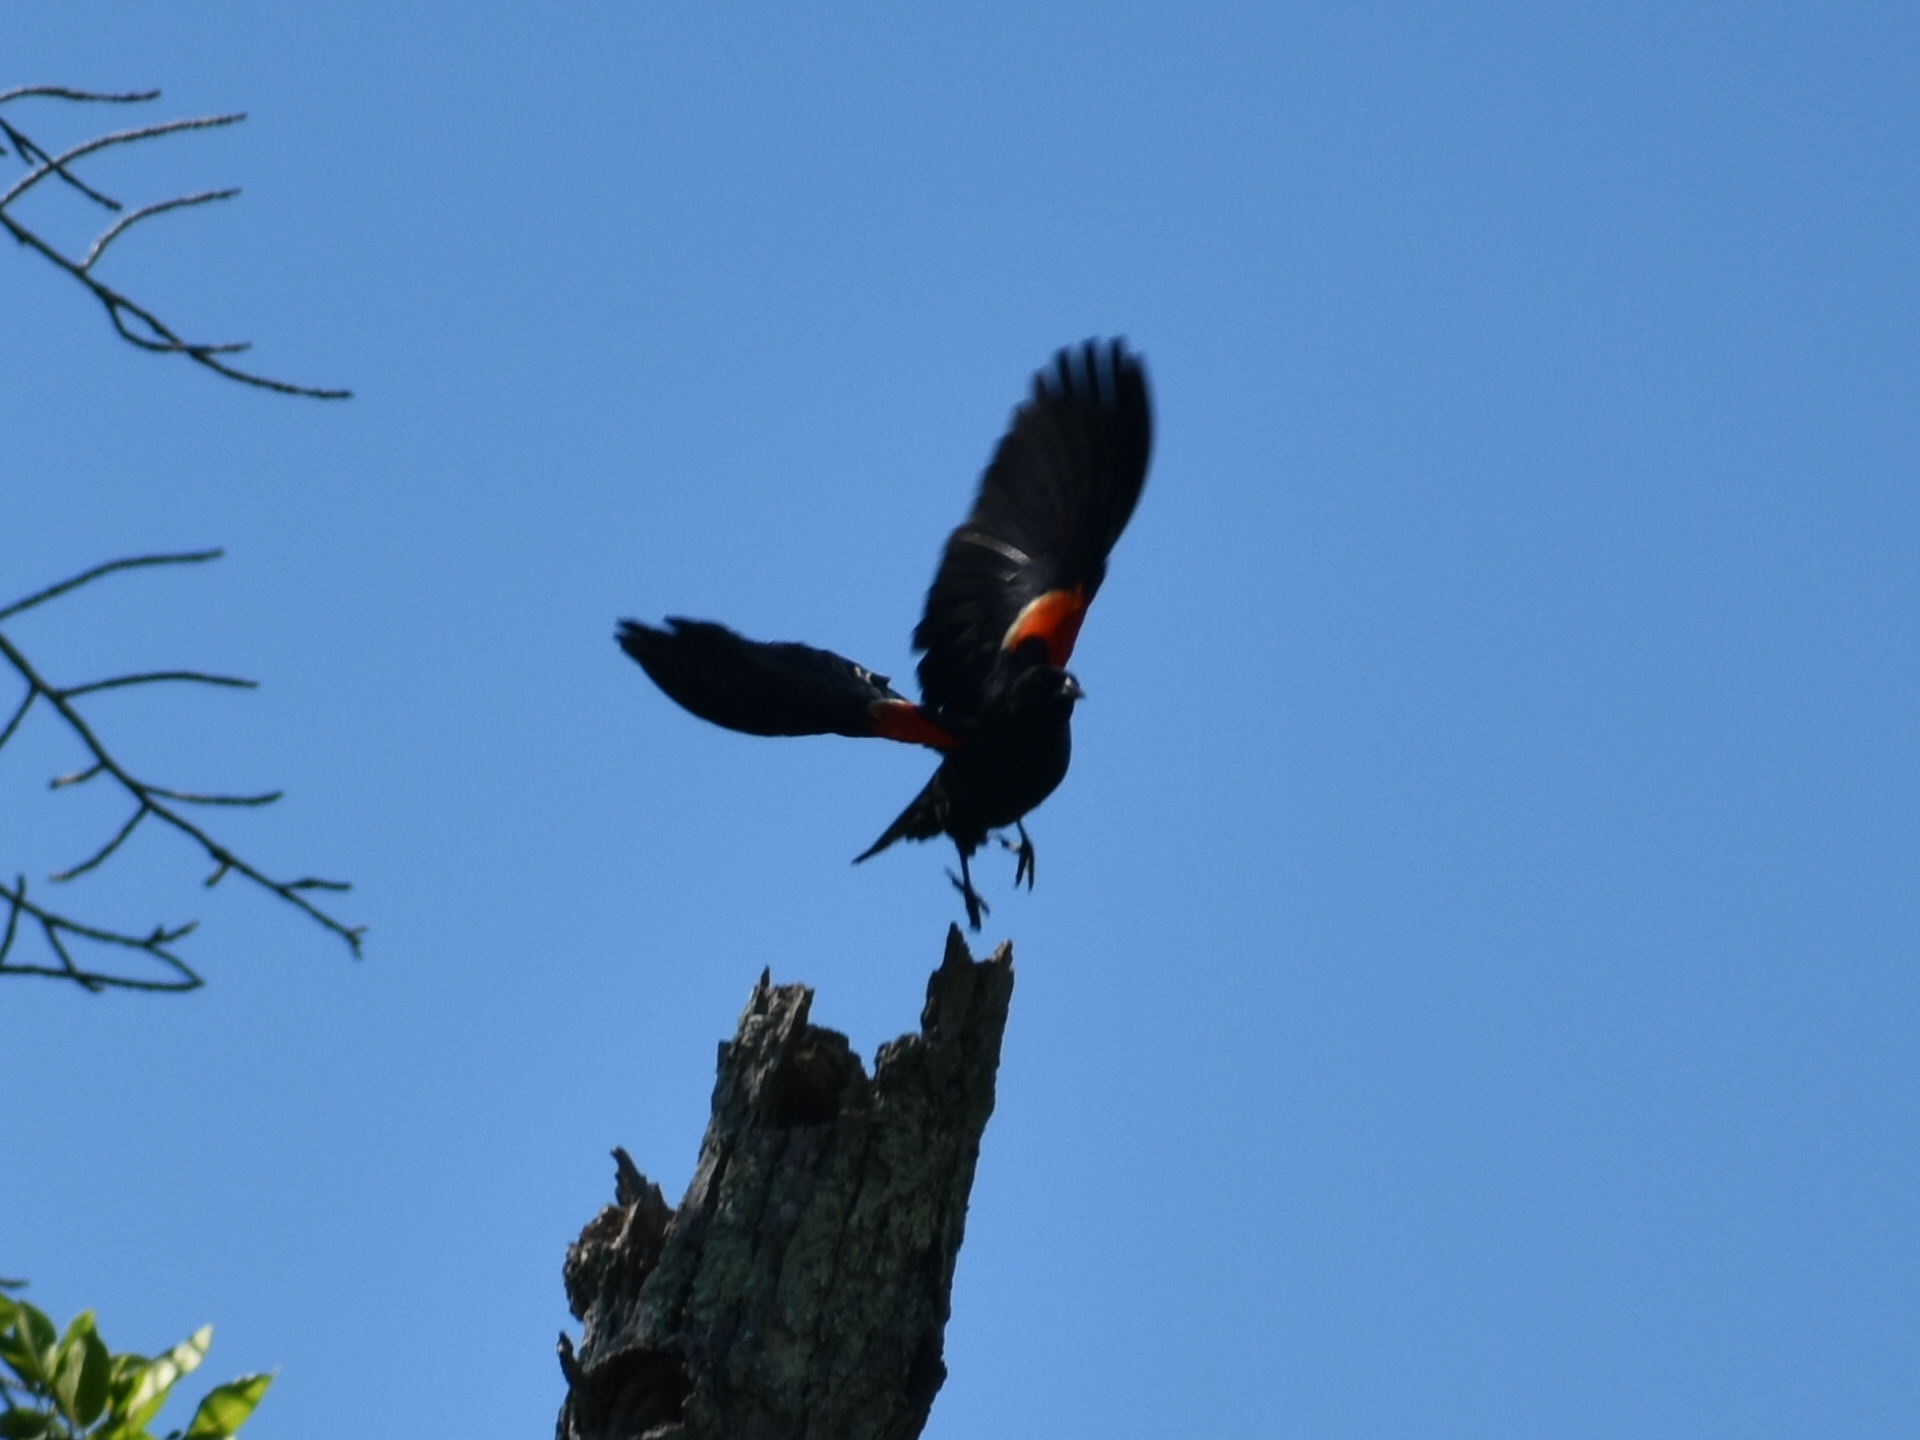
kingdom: Animalia
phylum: Chordata
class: Aves
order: Passeriformes
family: Icteridae
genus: Agelaius
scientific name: Agelaius phoeniceus
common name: Red-winged blackbird
